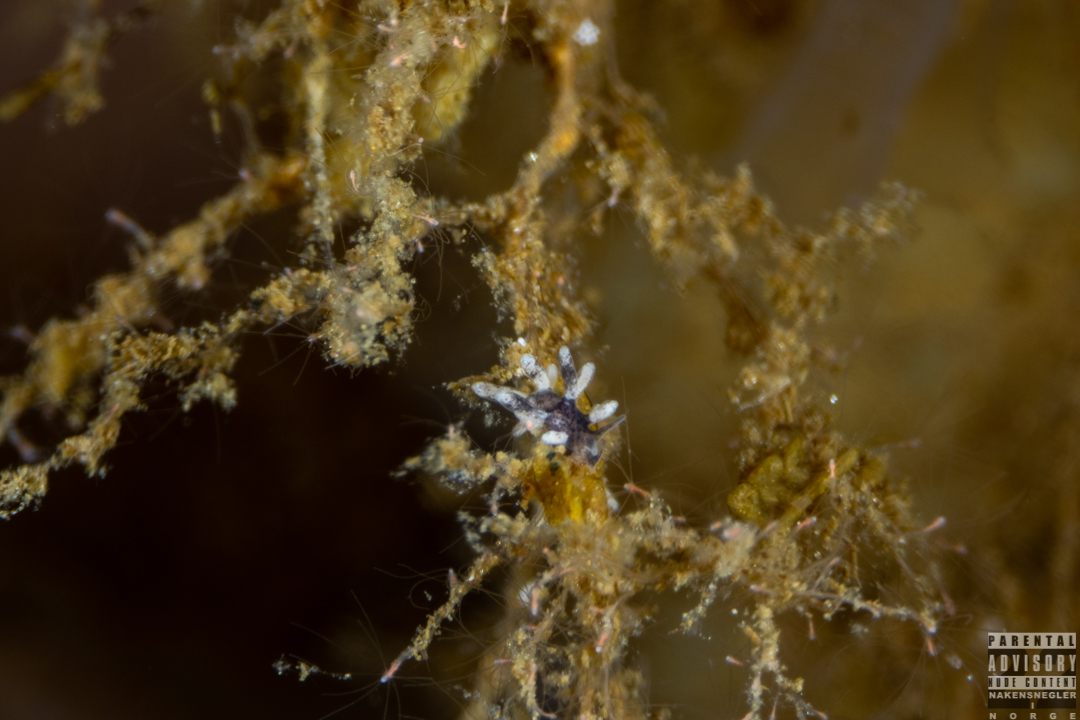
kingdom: Animalia
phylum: Mollusca
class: Gastropoda
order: Nudibranchia
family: Trinchesiidae
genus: Tenellia
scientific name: Tenellia adspersa
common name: Lagoon sea slug
